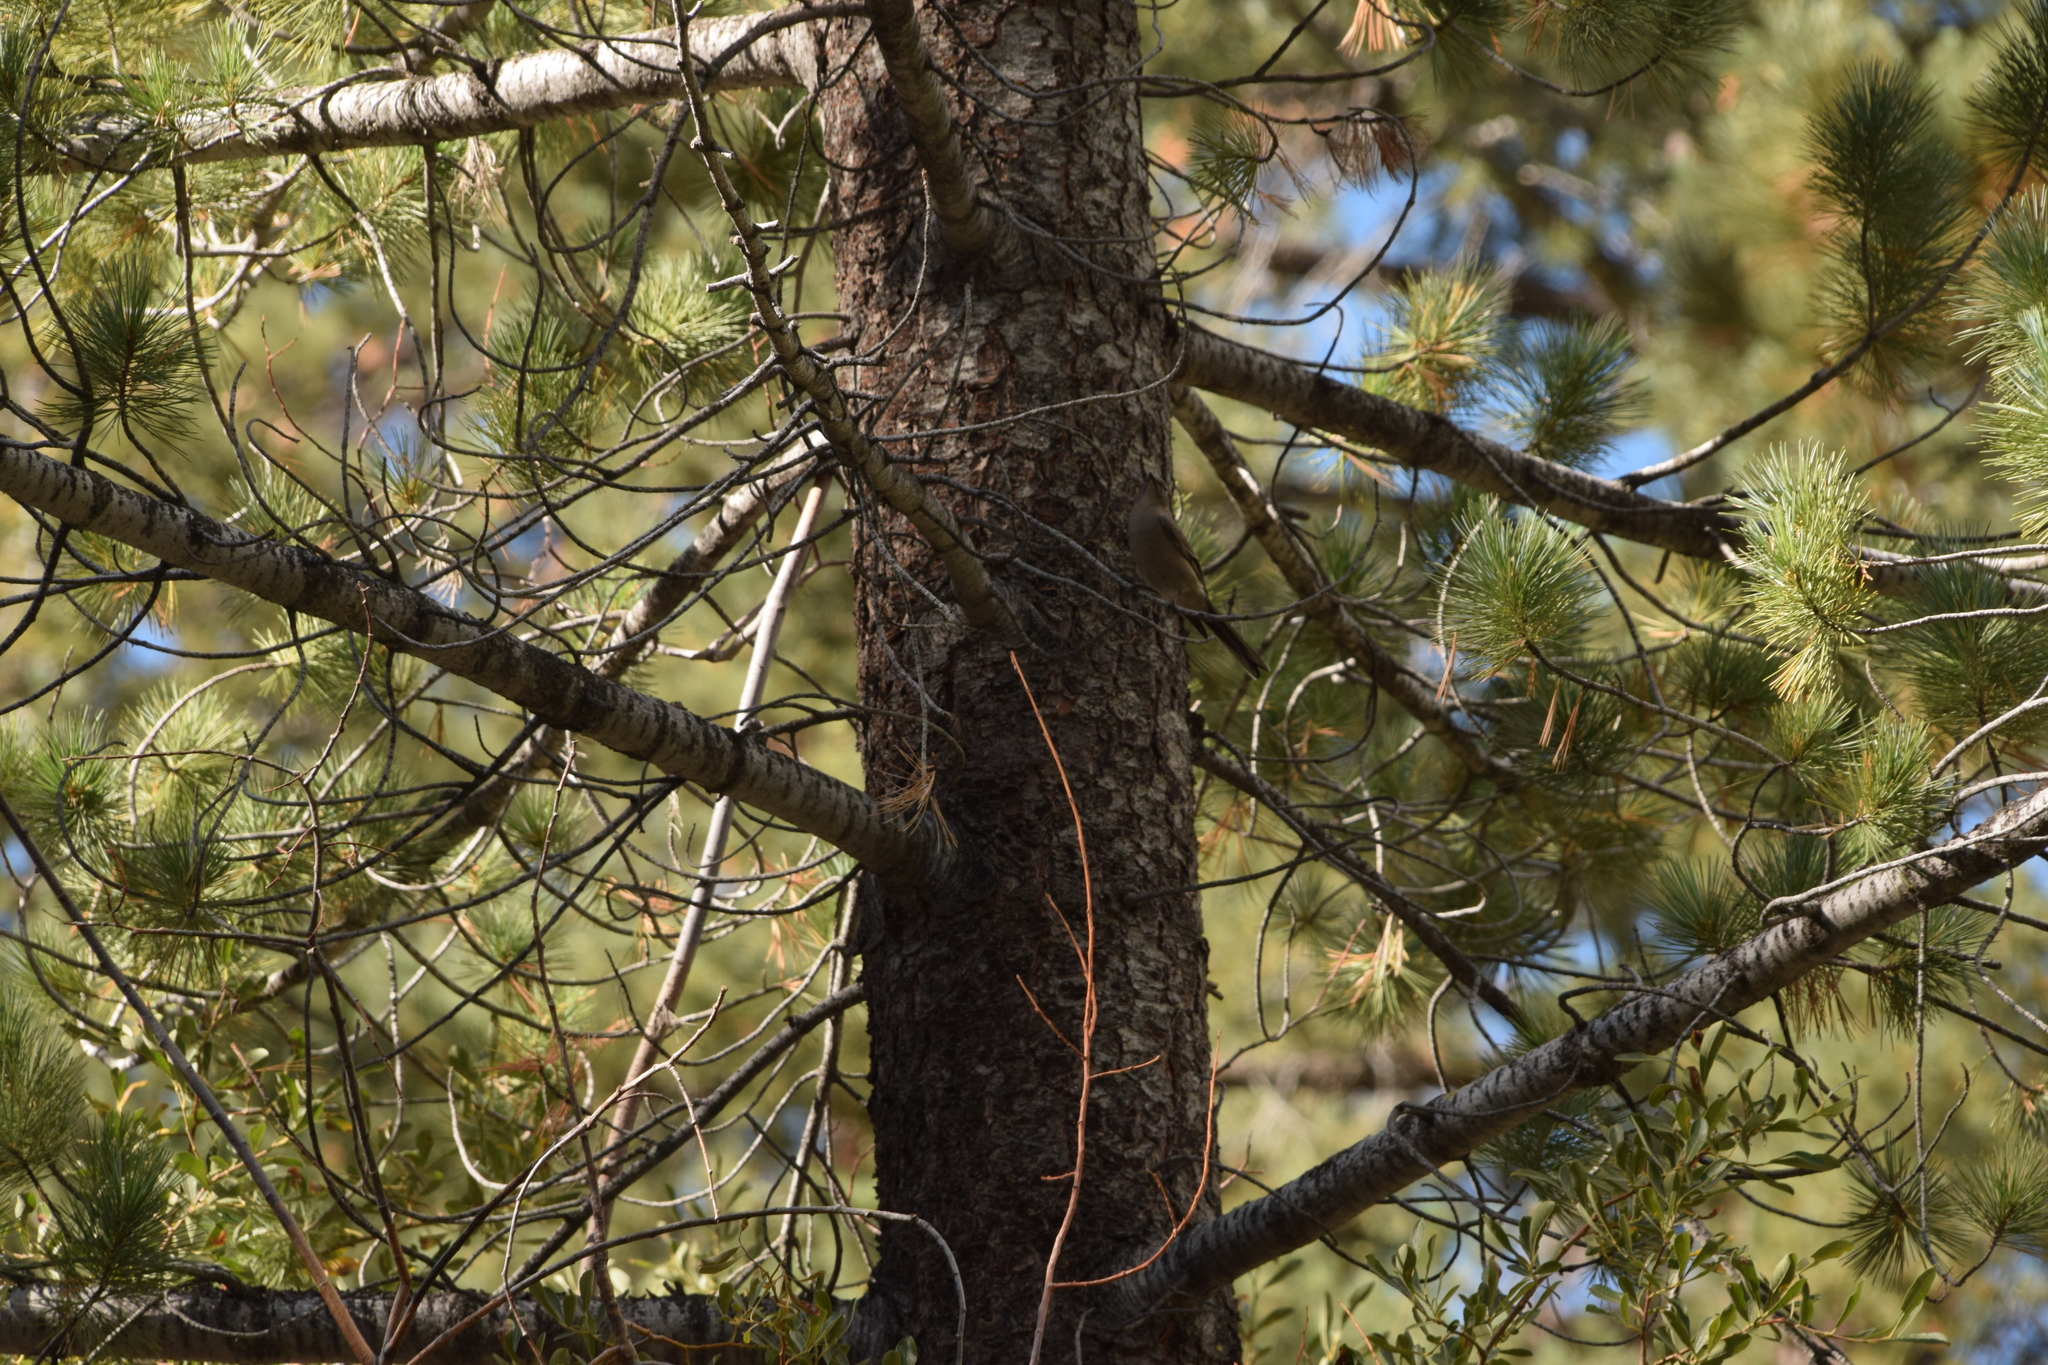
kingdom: Animalia
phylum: Chordata
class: Aves
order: Passeriformes
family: Turdidae
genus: Myadestes
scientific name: Myadestes townsendi
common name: Townsend's solitaire
